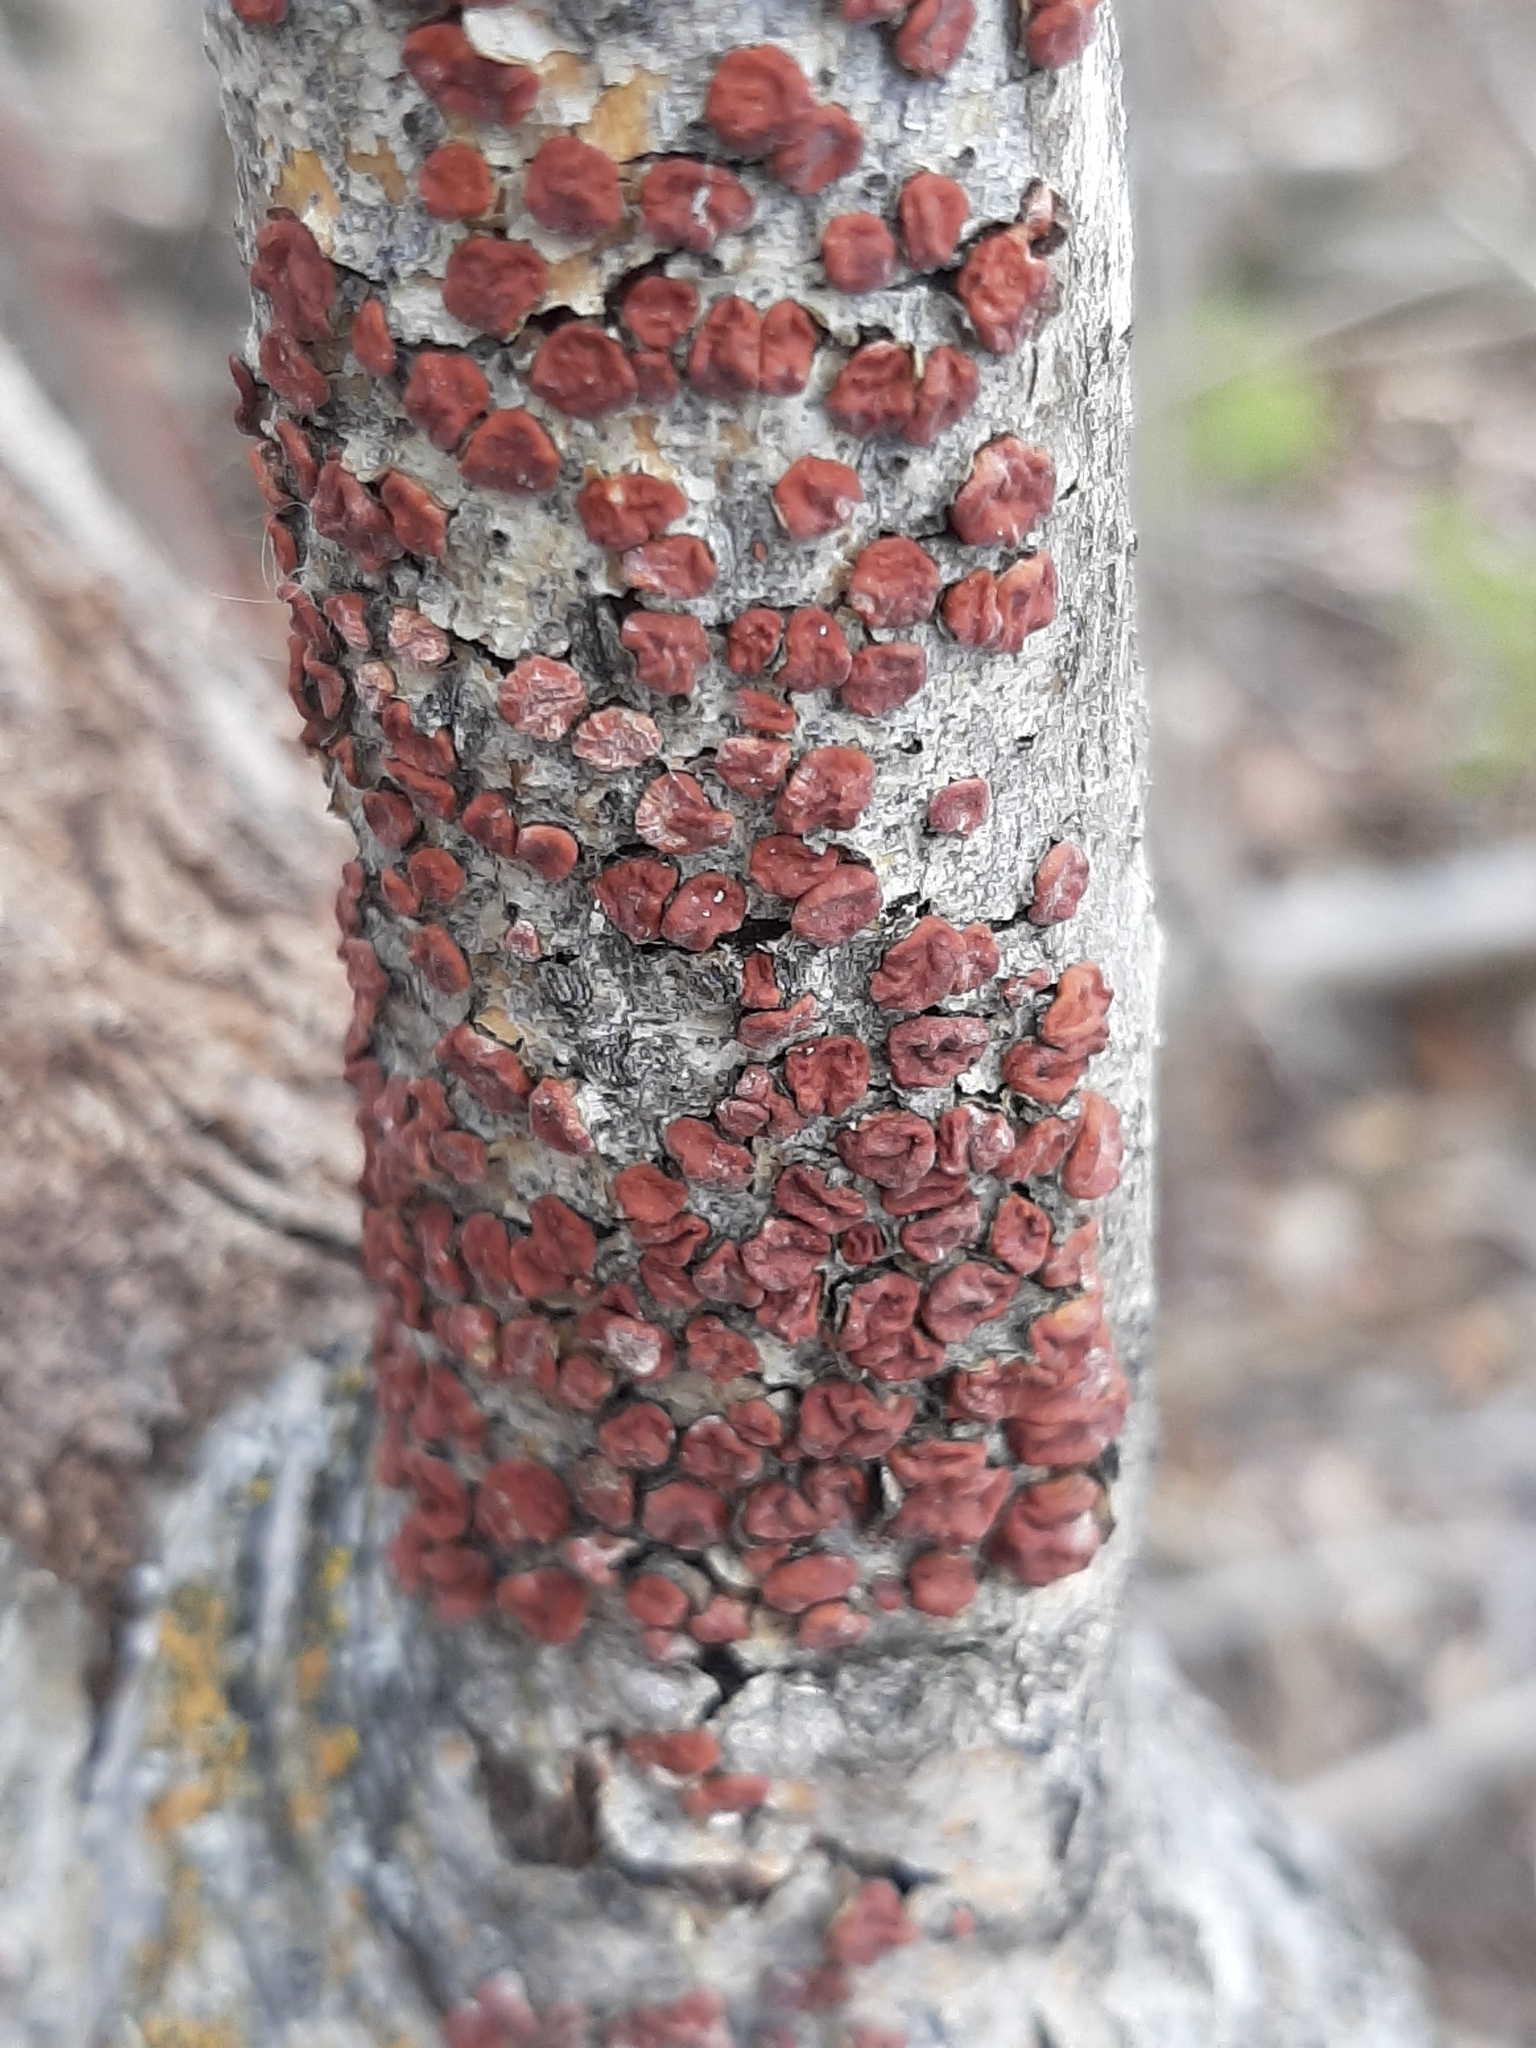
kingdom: Fungi
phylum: Basidiomycota
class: Agaricomycetes
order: Russulales
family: Peniophoraceae
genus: Peniophora
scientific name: Peniophora rufa
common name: Red tree brain fungus
